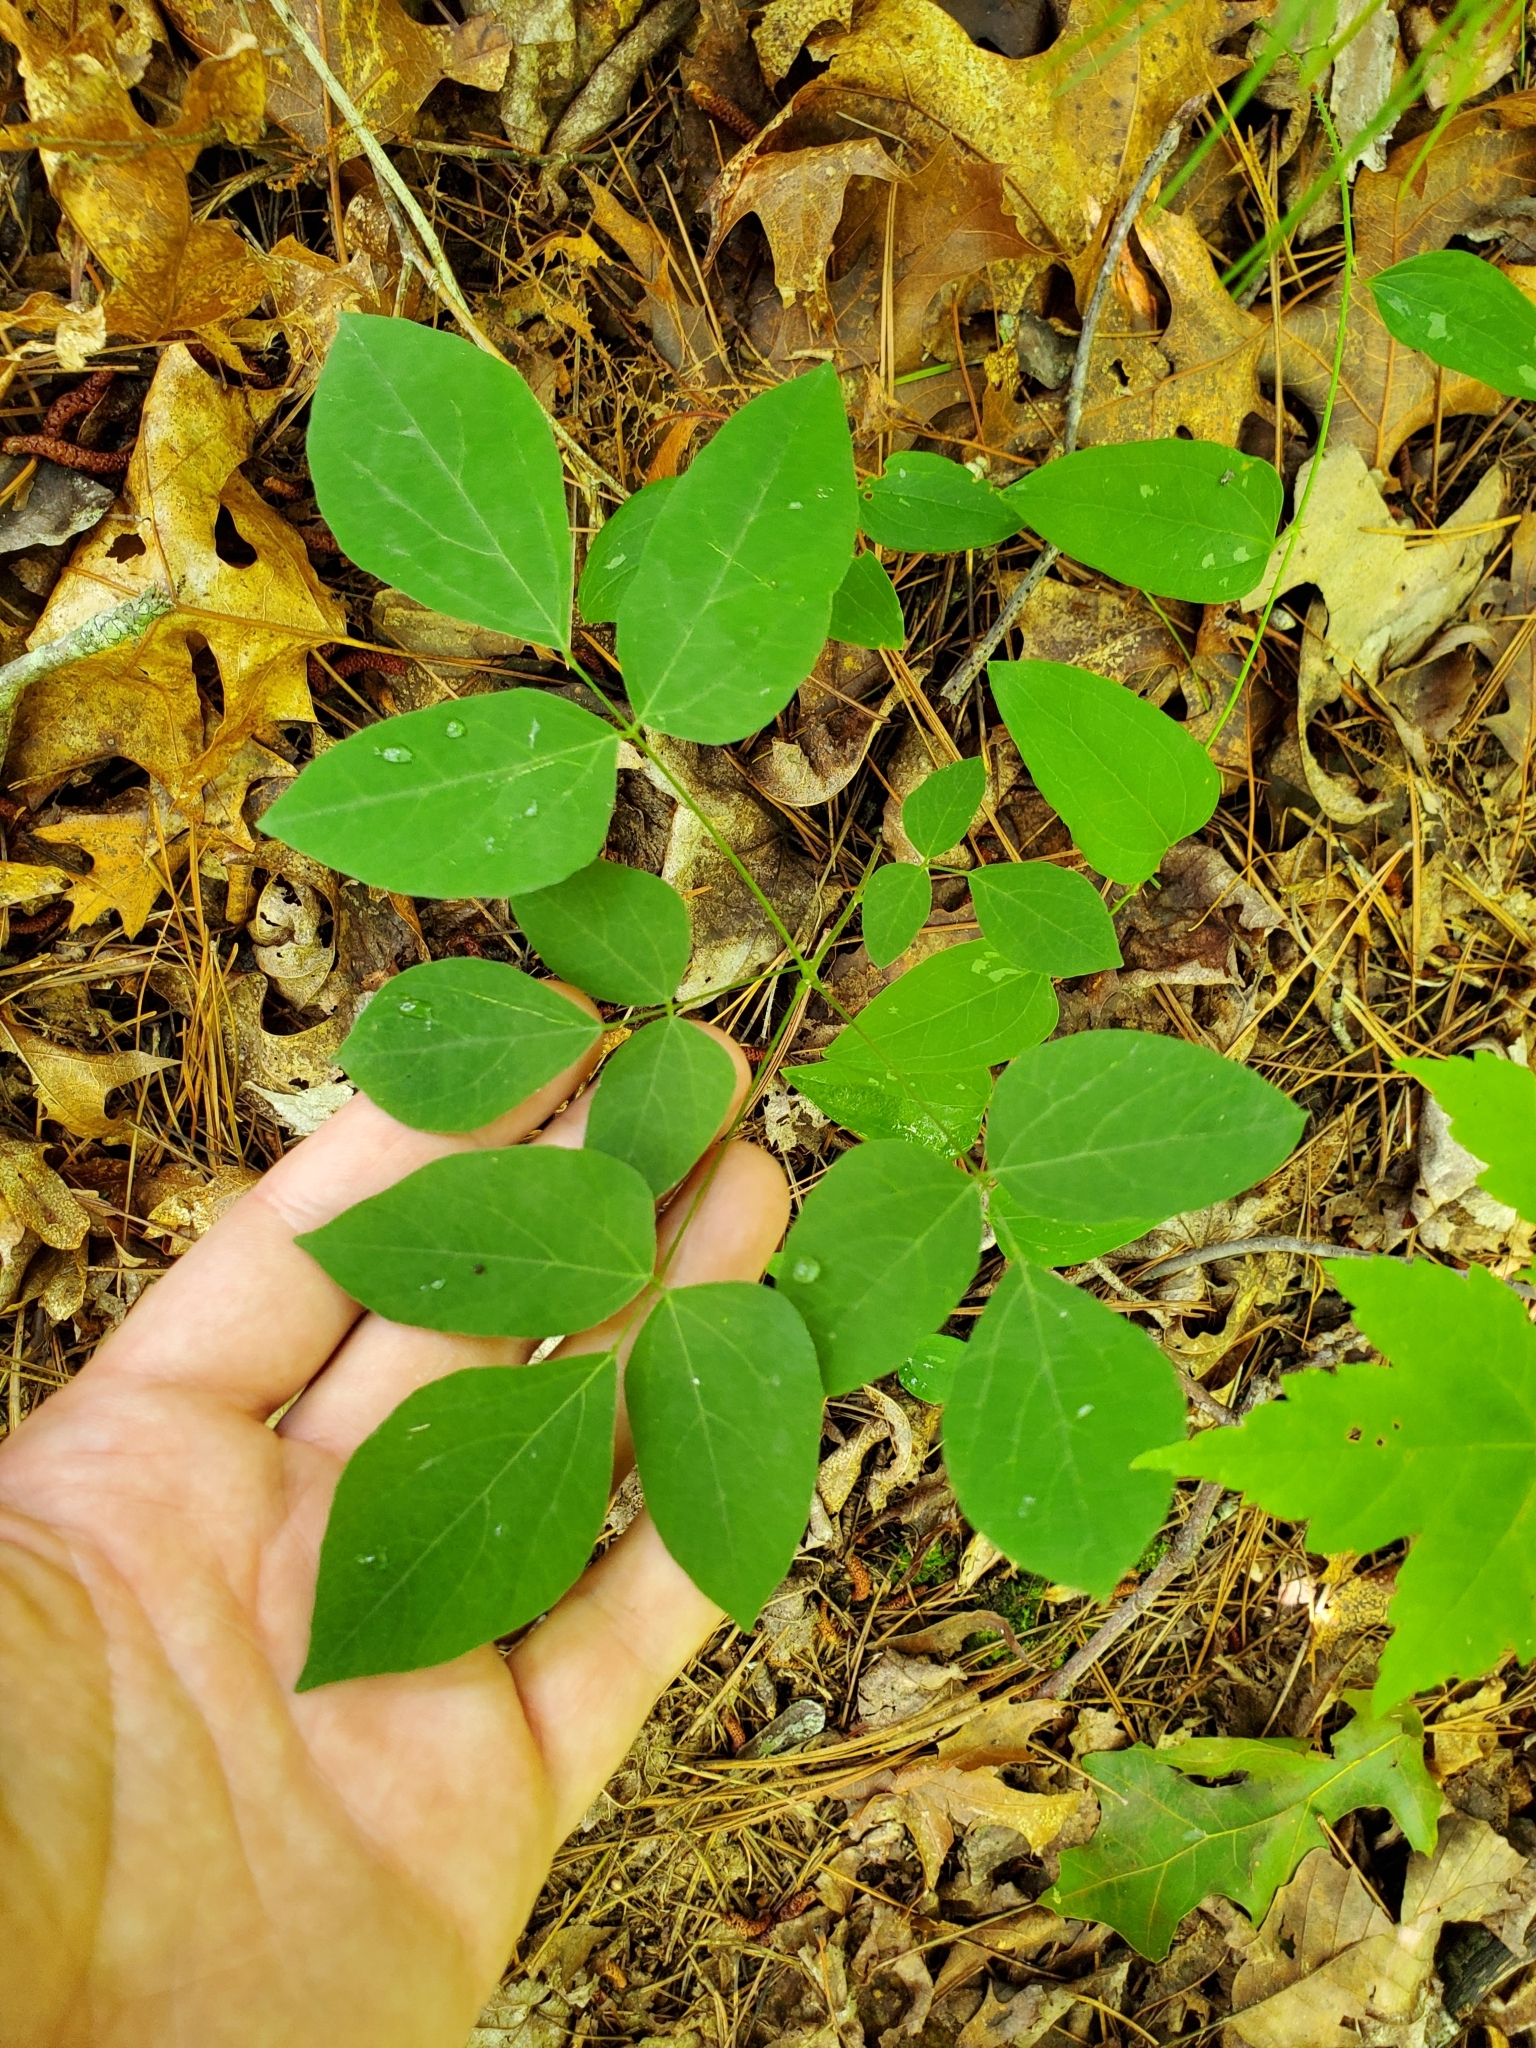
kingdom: Plantae
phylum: Tracheophyta
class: Magnoliopsida
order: Fabales
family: Fabaceae
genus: Hylodesmum
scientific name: Hylodesmum nudiflorum
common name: Bare-stemmed tick-trefoil
